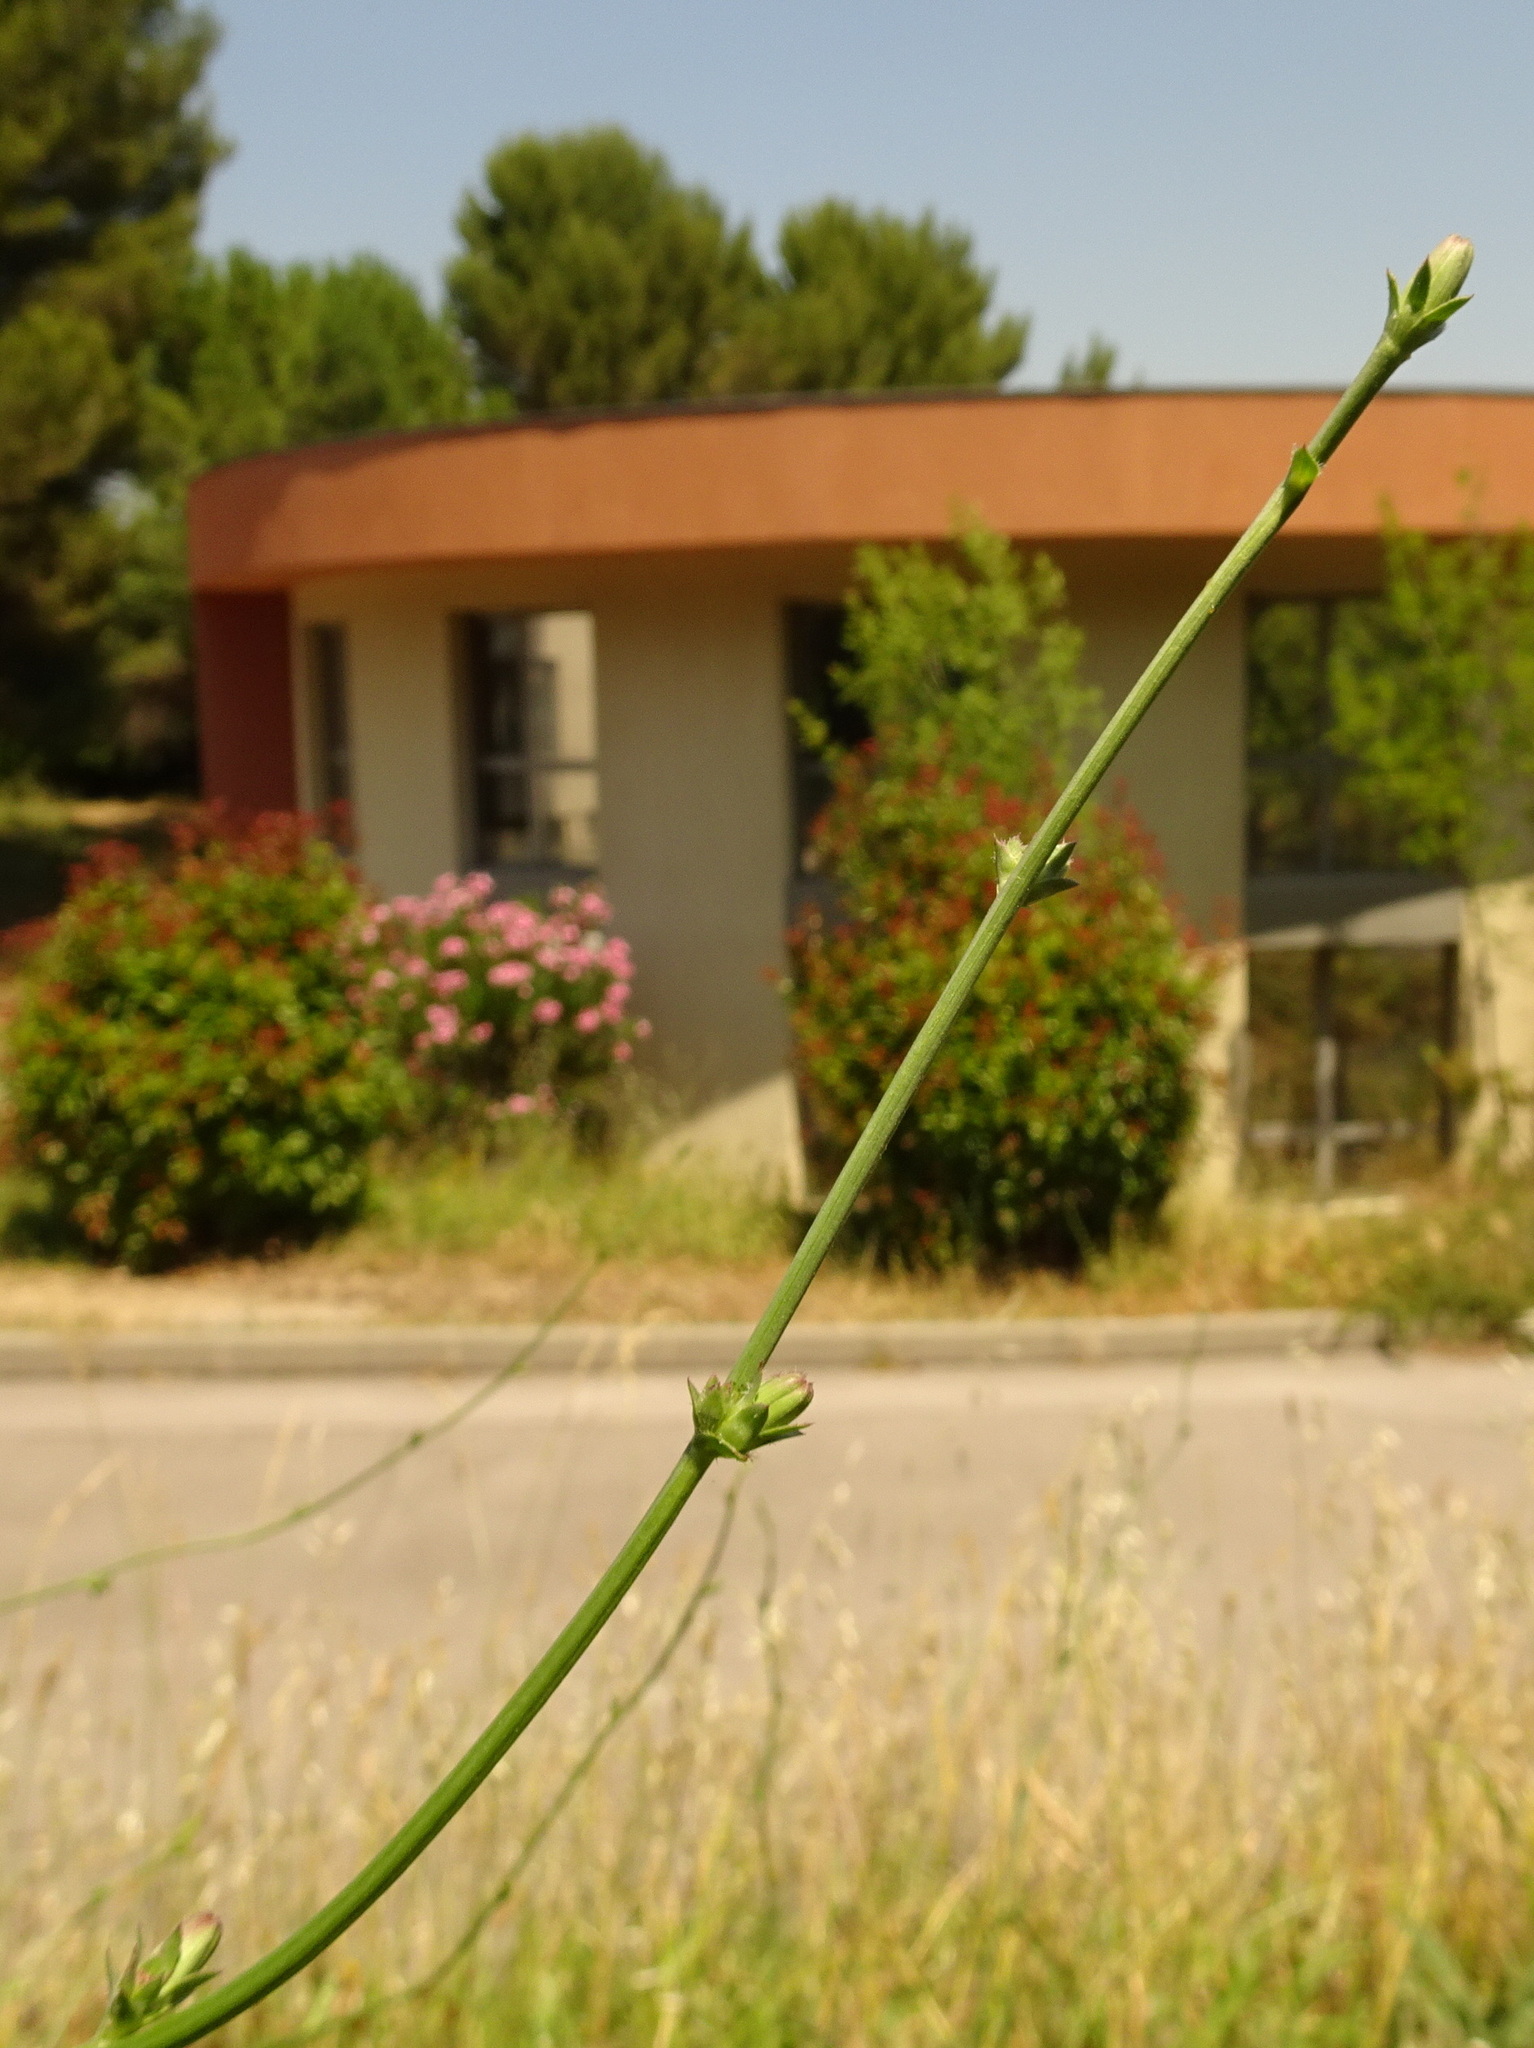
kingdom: Plantae
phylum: Tracheophyta
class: Magnoliopsida
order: Asterales
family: Asteraceae
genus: Cichorium
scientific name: Cichorium intybus
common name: Chicory
